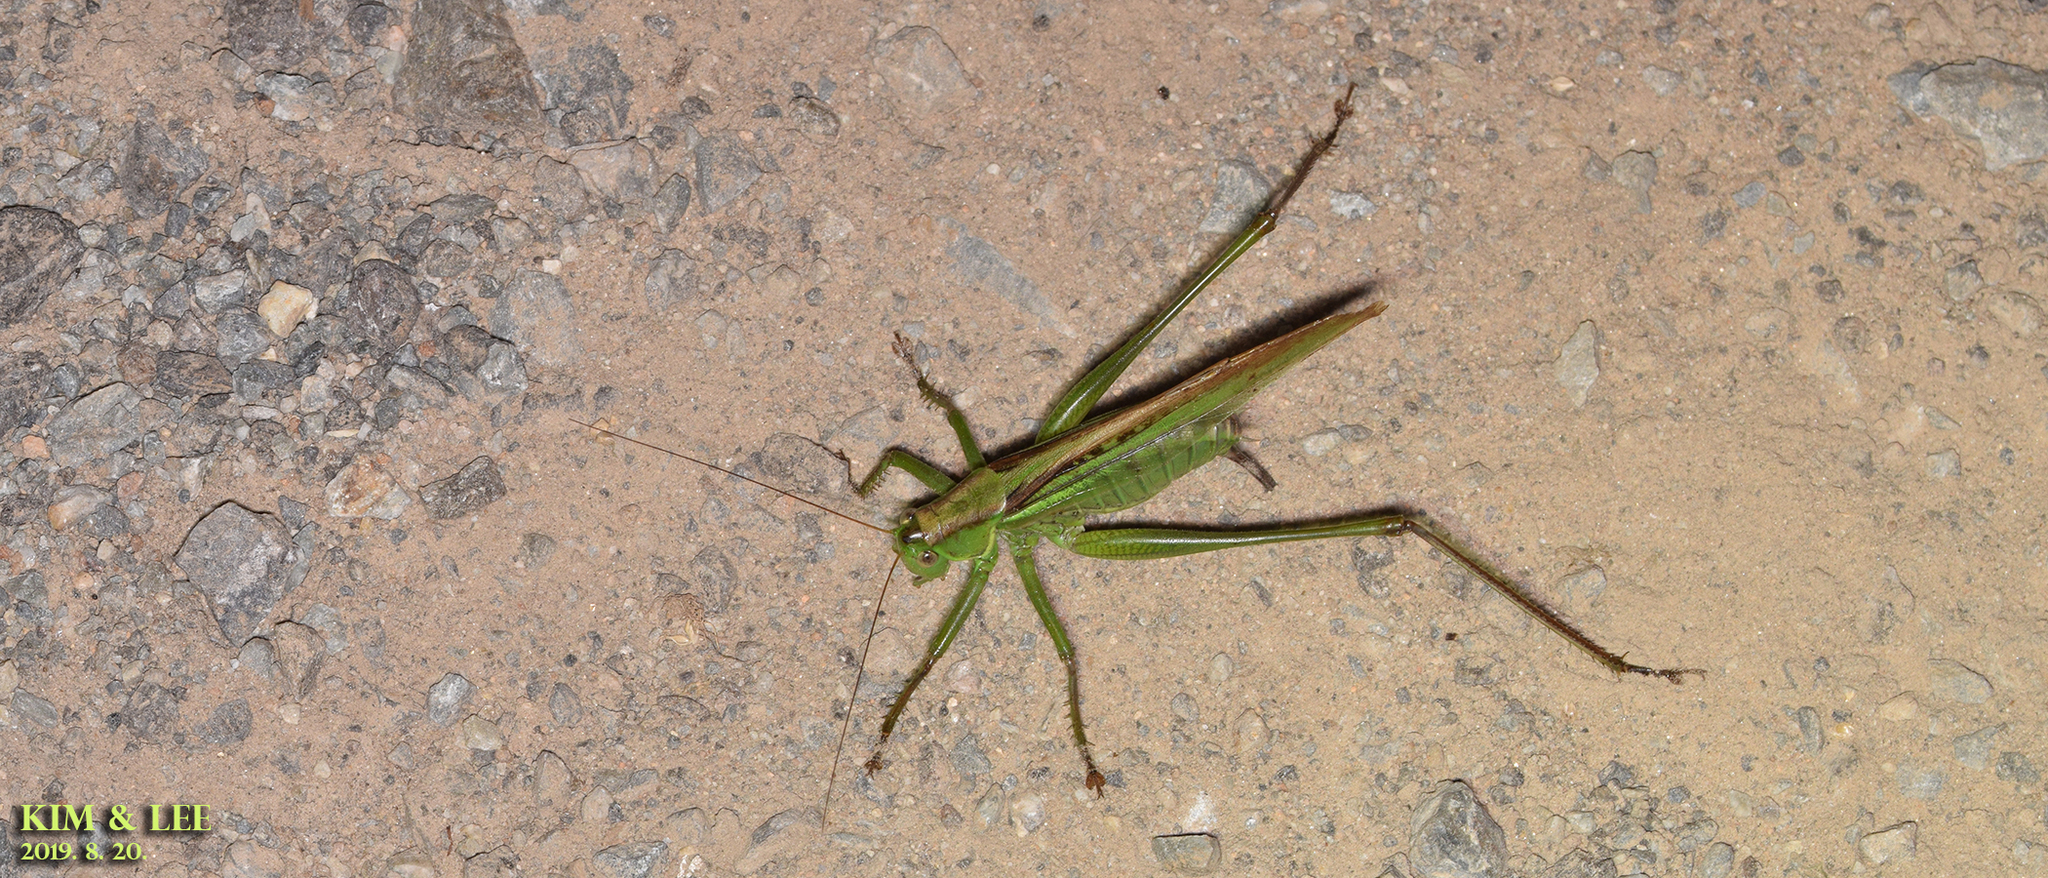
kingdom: Animalia
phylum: Arthropoda
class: Insecta
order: Orthoptera
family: Tettigoniidae
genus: Gampsocleis
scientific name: Gampsocleis ussuriensis
